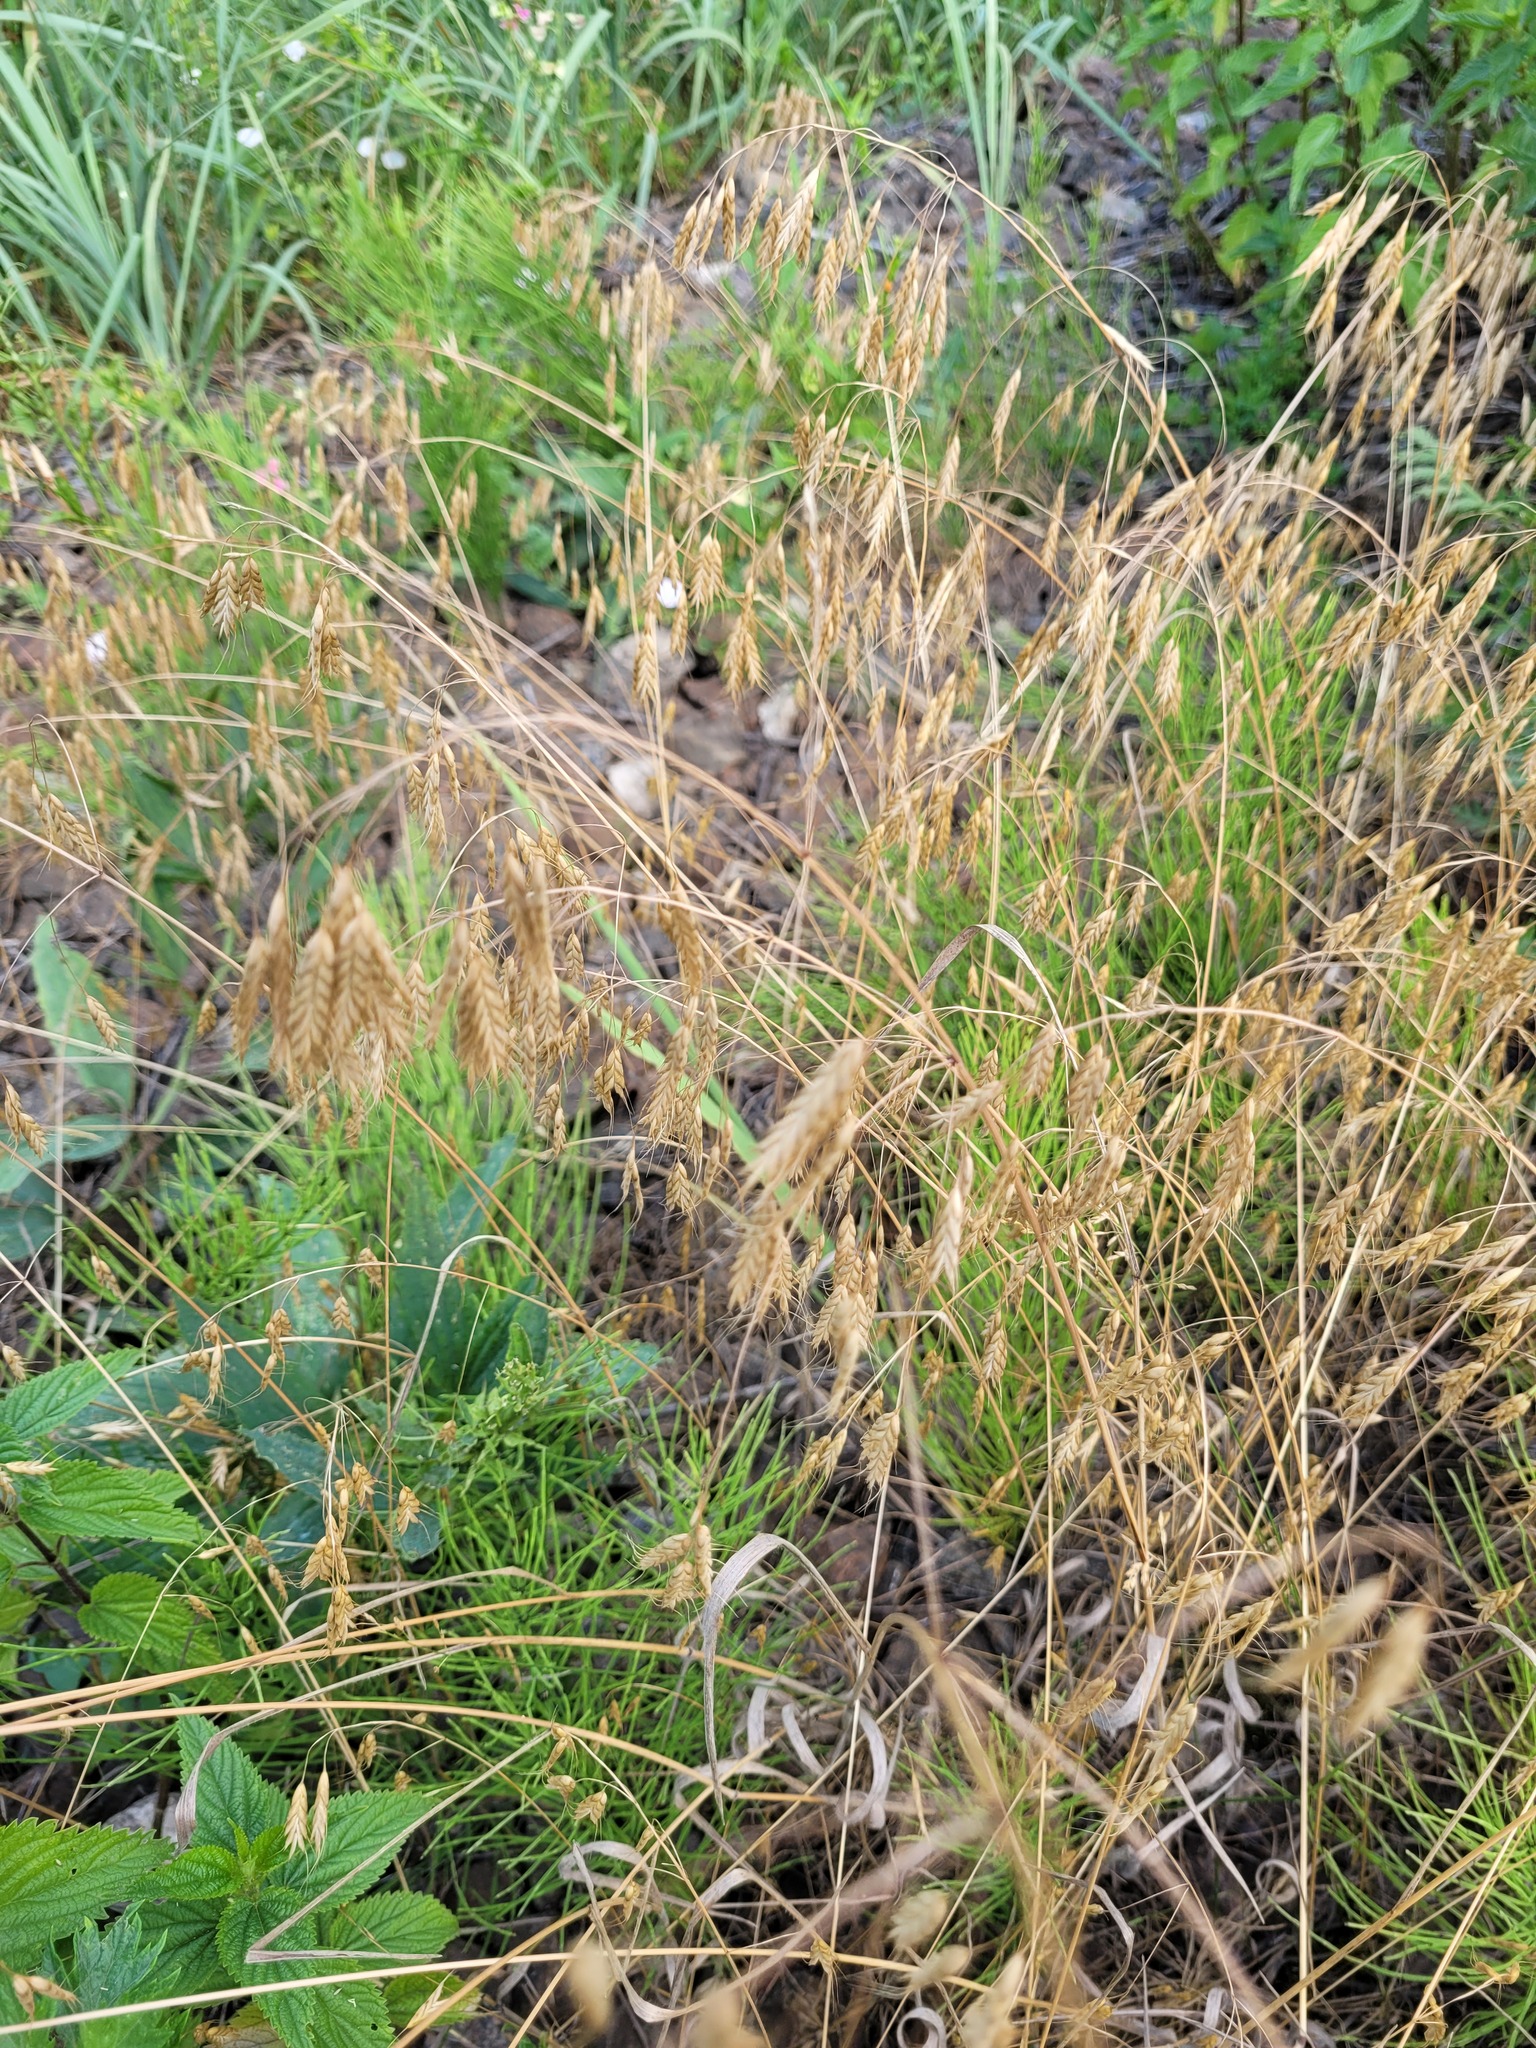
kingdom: Plantae
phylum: Tracheophyta
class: Liliopsida
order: Poales
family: Poaceae
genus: Bromus
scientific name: Bromus japonicus
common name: Japanese brome
